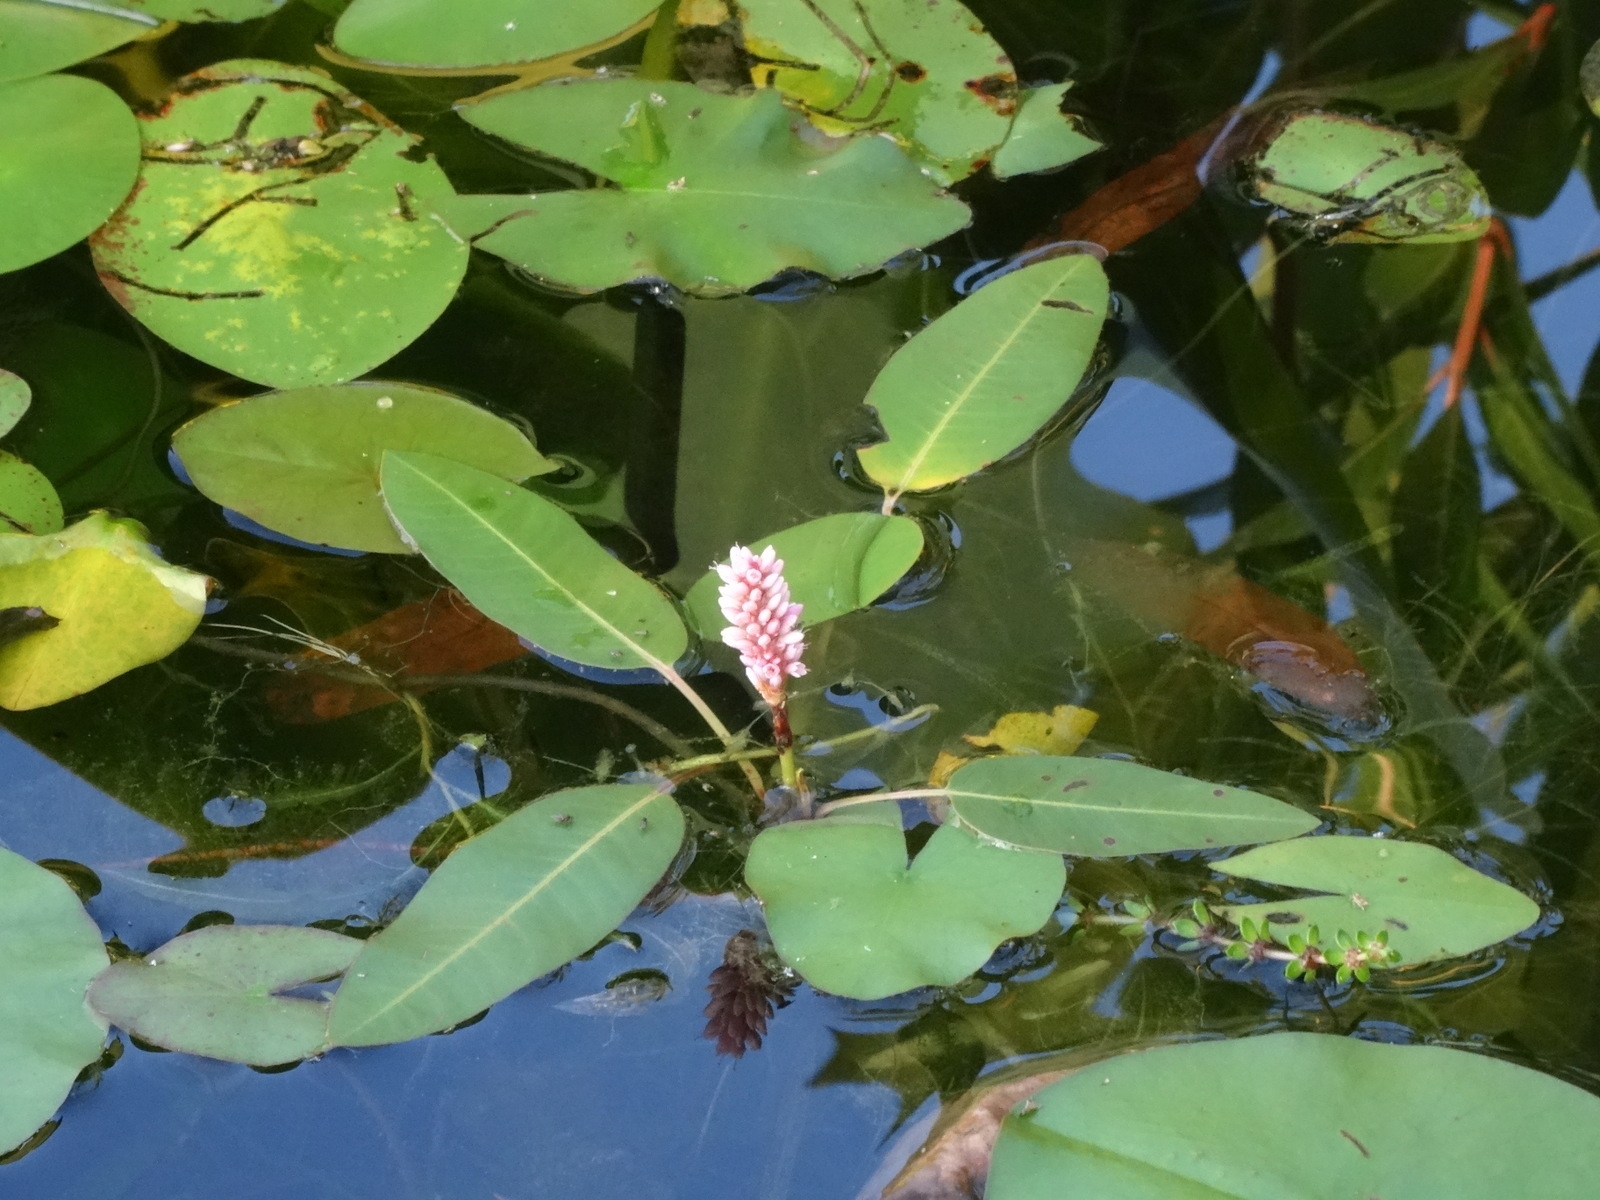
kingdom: Plantae
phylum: Tracheophyta
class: Magnoliopsida
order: Caryophyllales
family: Polygonaceae
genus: Persicaria
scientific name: Persicaria amphibia
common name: Amphibious bistort
